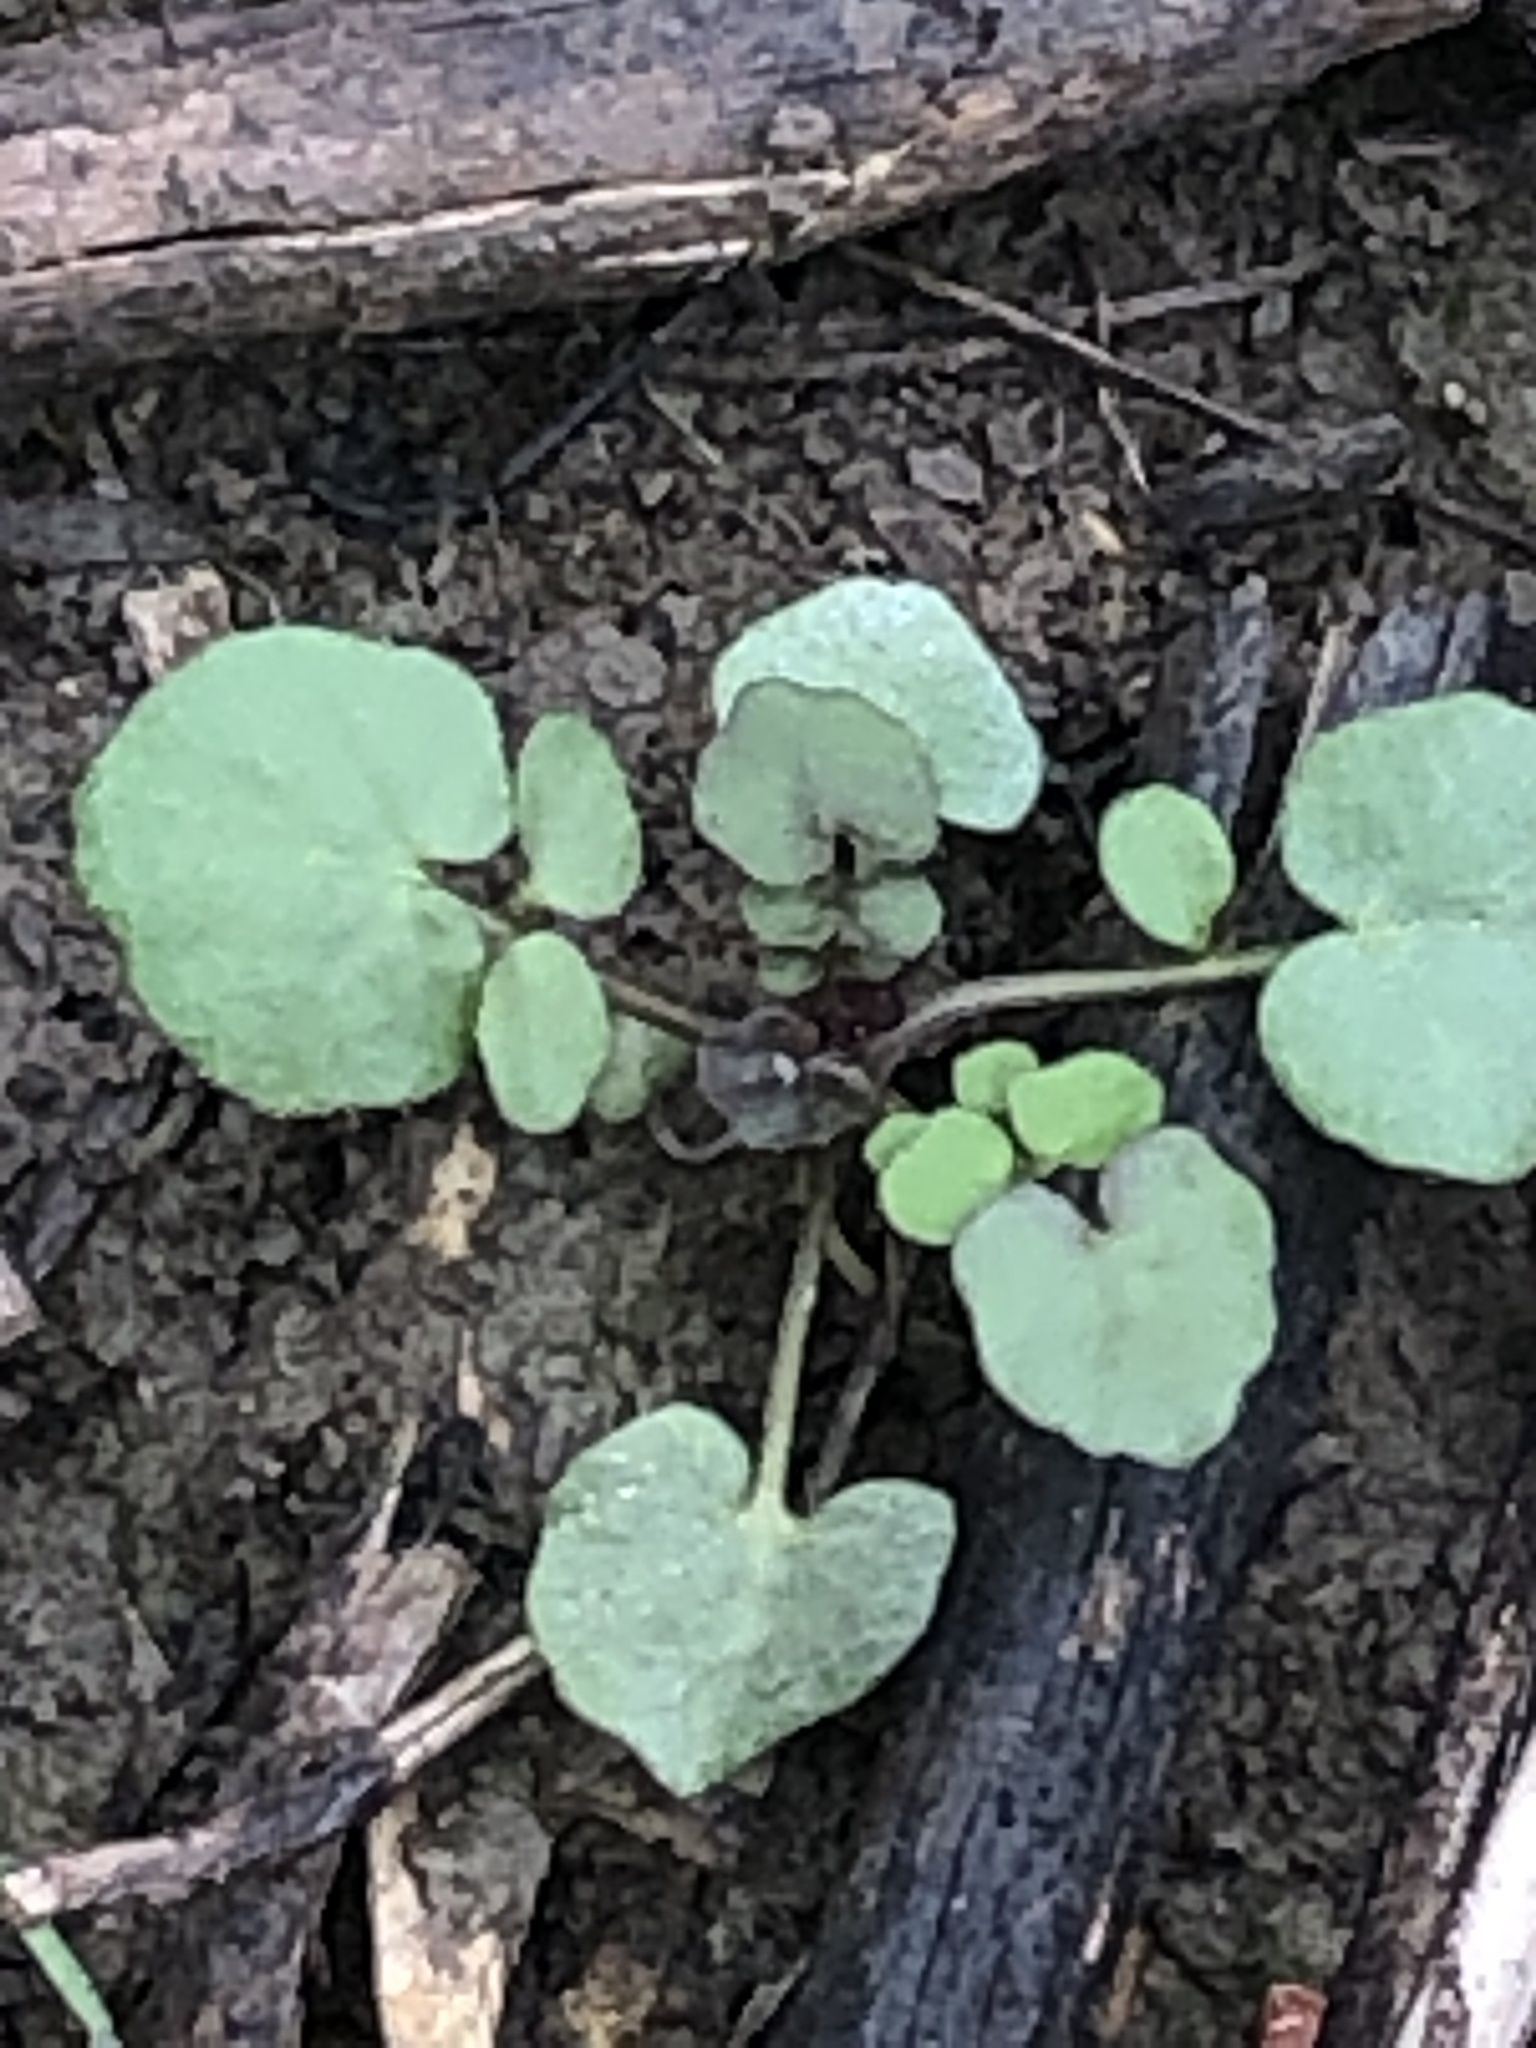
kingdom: Plantae
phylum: Tracheophyta
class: Magnoliopsida
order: Brassicales
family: Brassicaceae
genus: Cardamine
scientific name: Cardamine hirsuta
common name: Hairy bittercress
